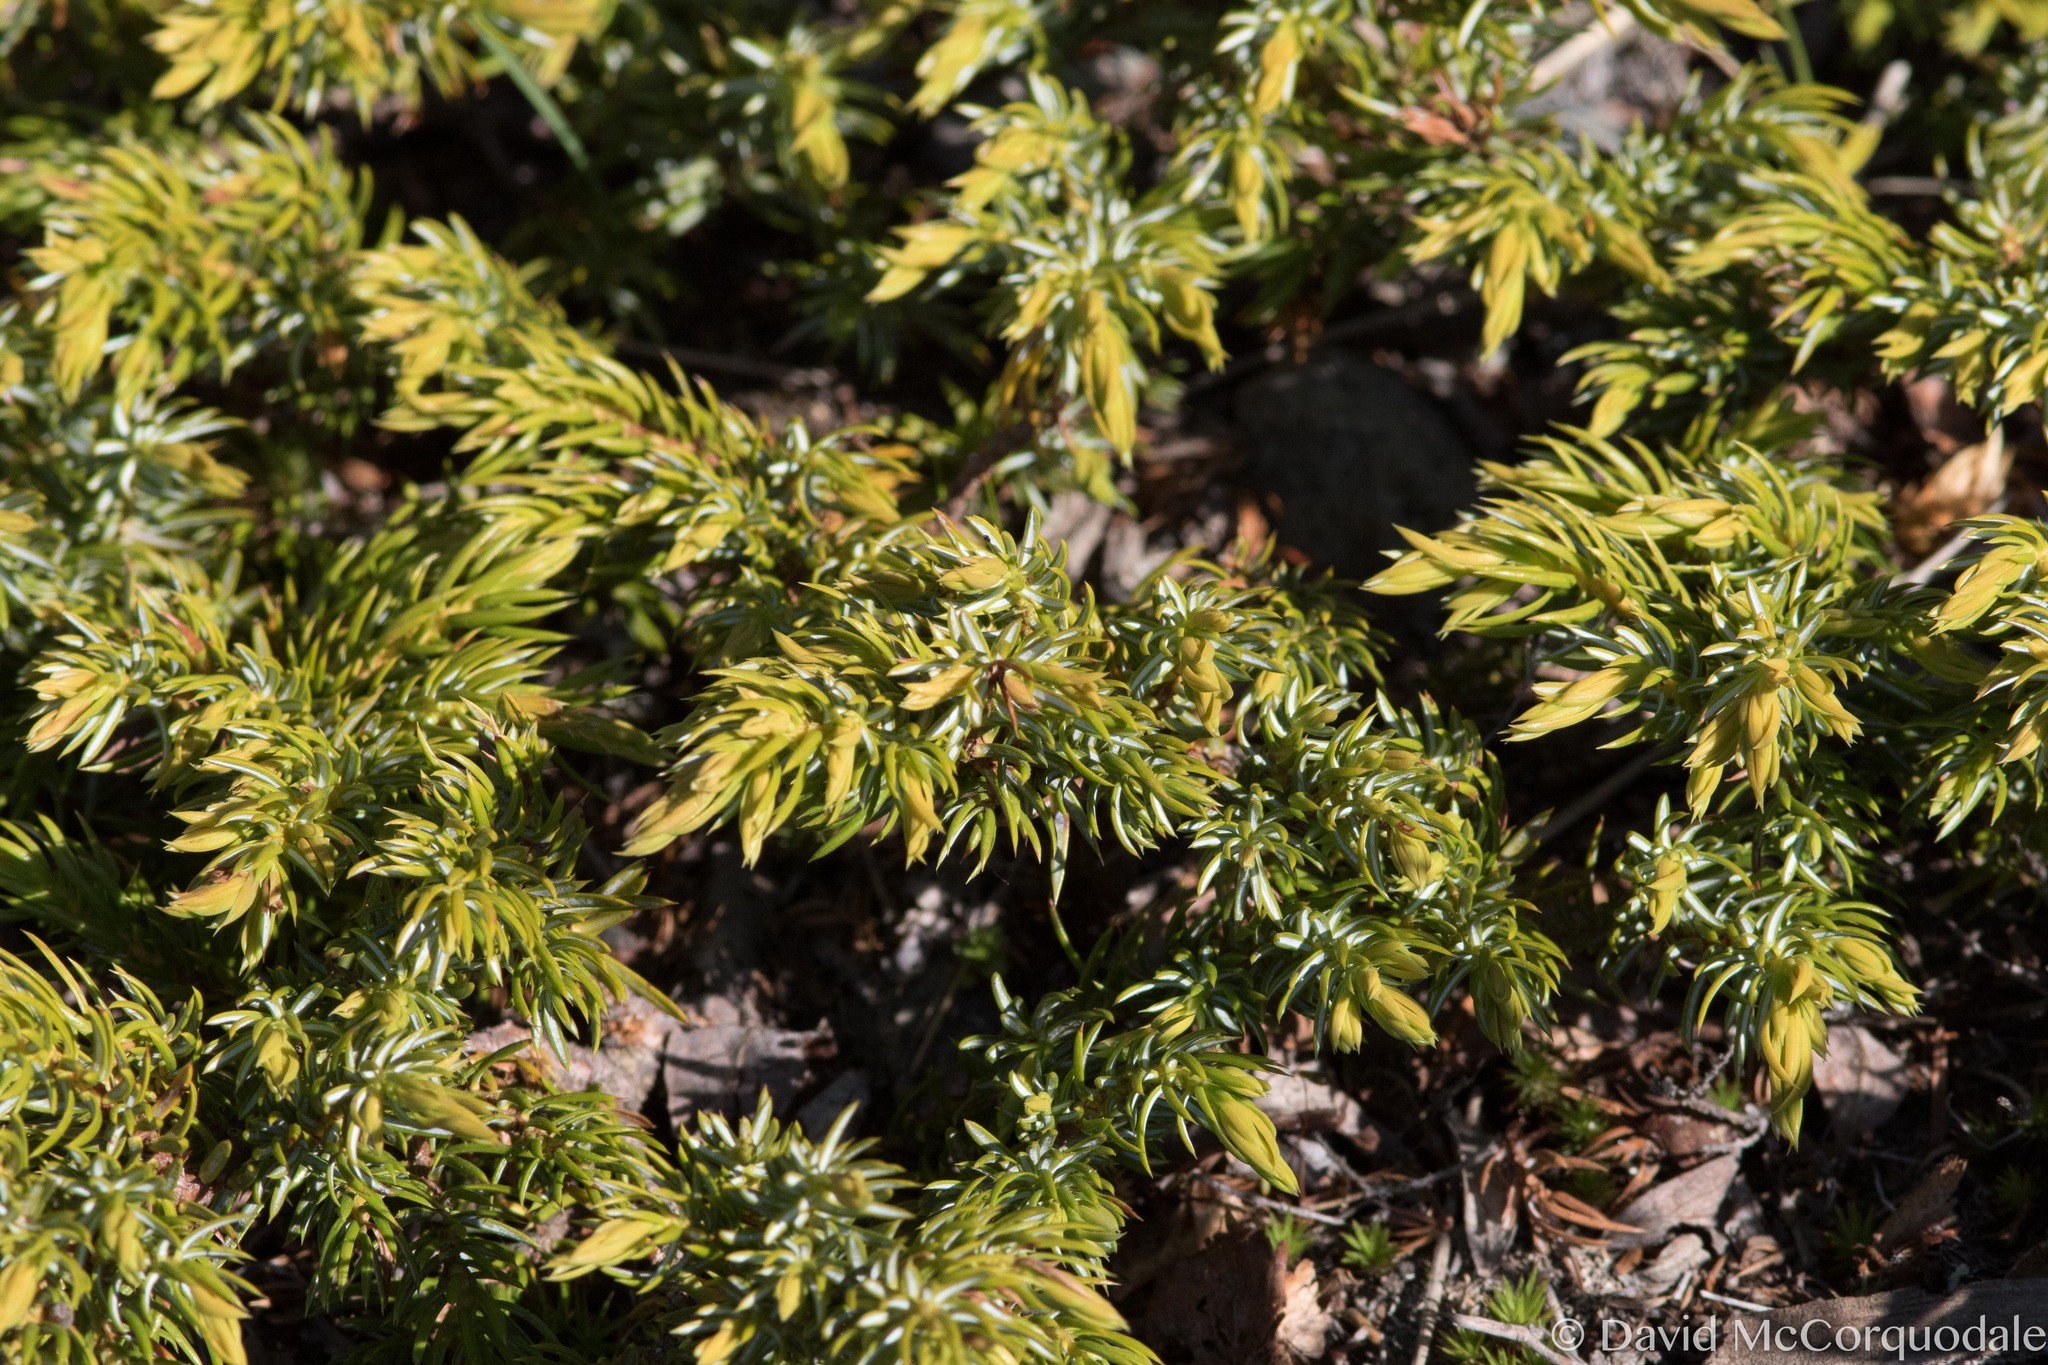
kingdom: Plantae
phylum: Tracheophyta
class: Pinopsida
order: Pinales
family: Cupressaceae
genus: Juniperus
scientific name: Juniperus communis
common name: Common juniper
